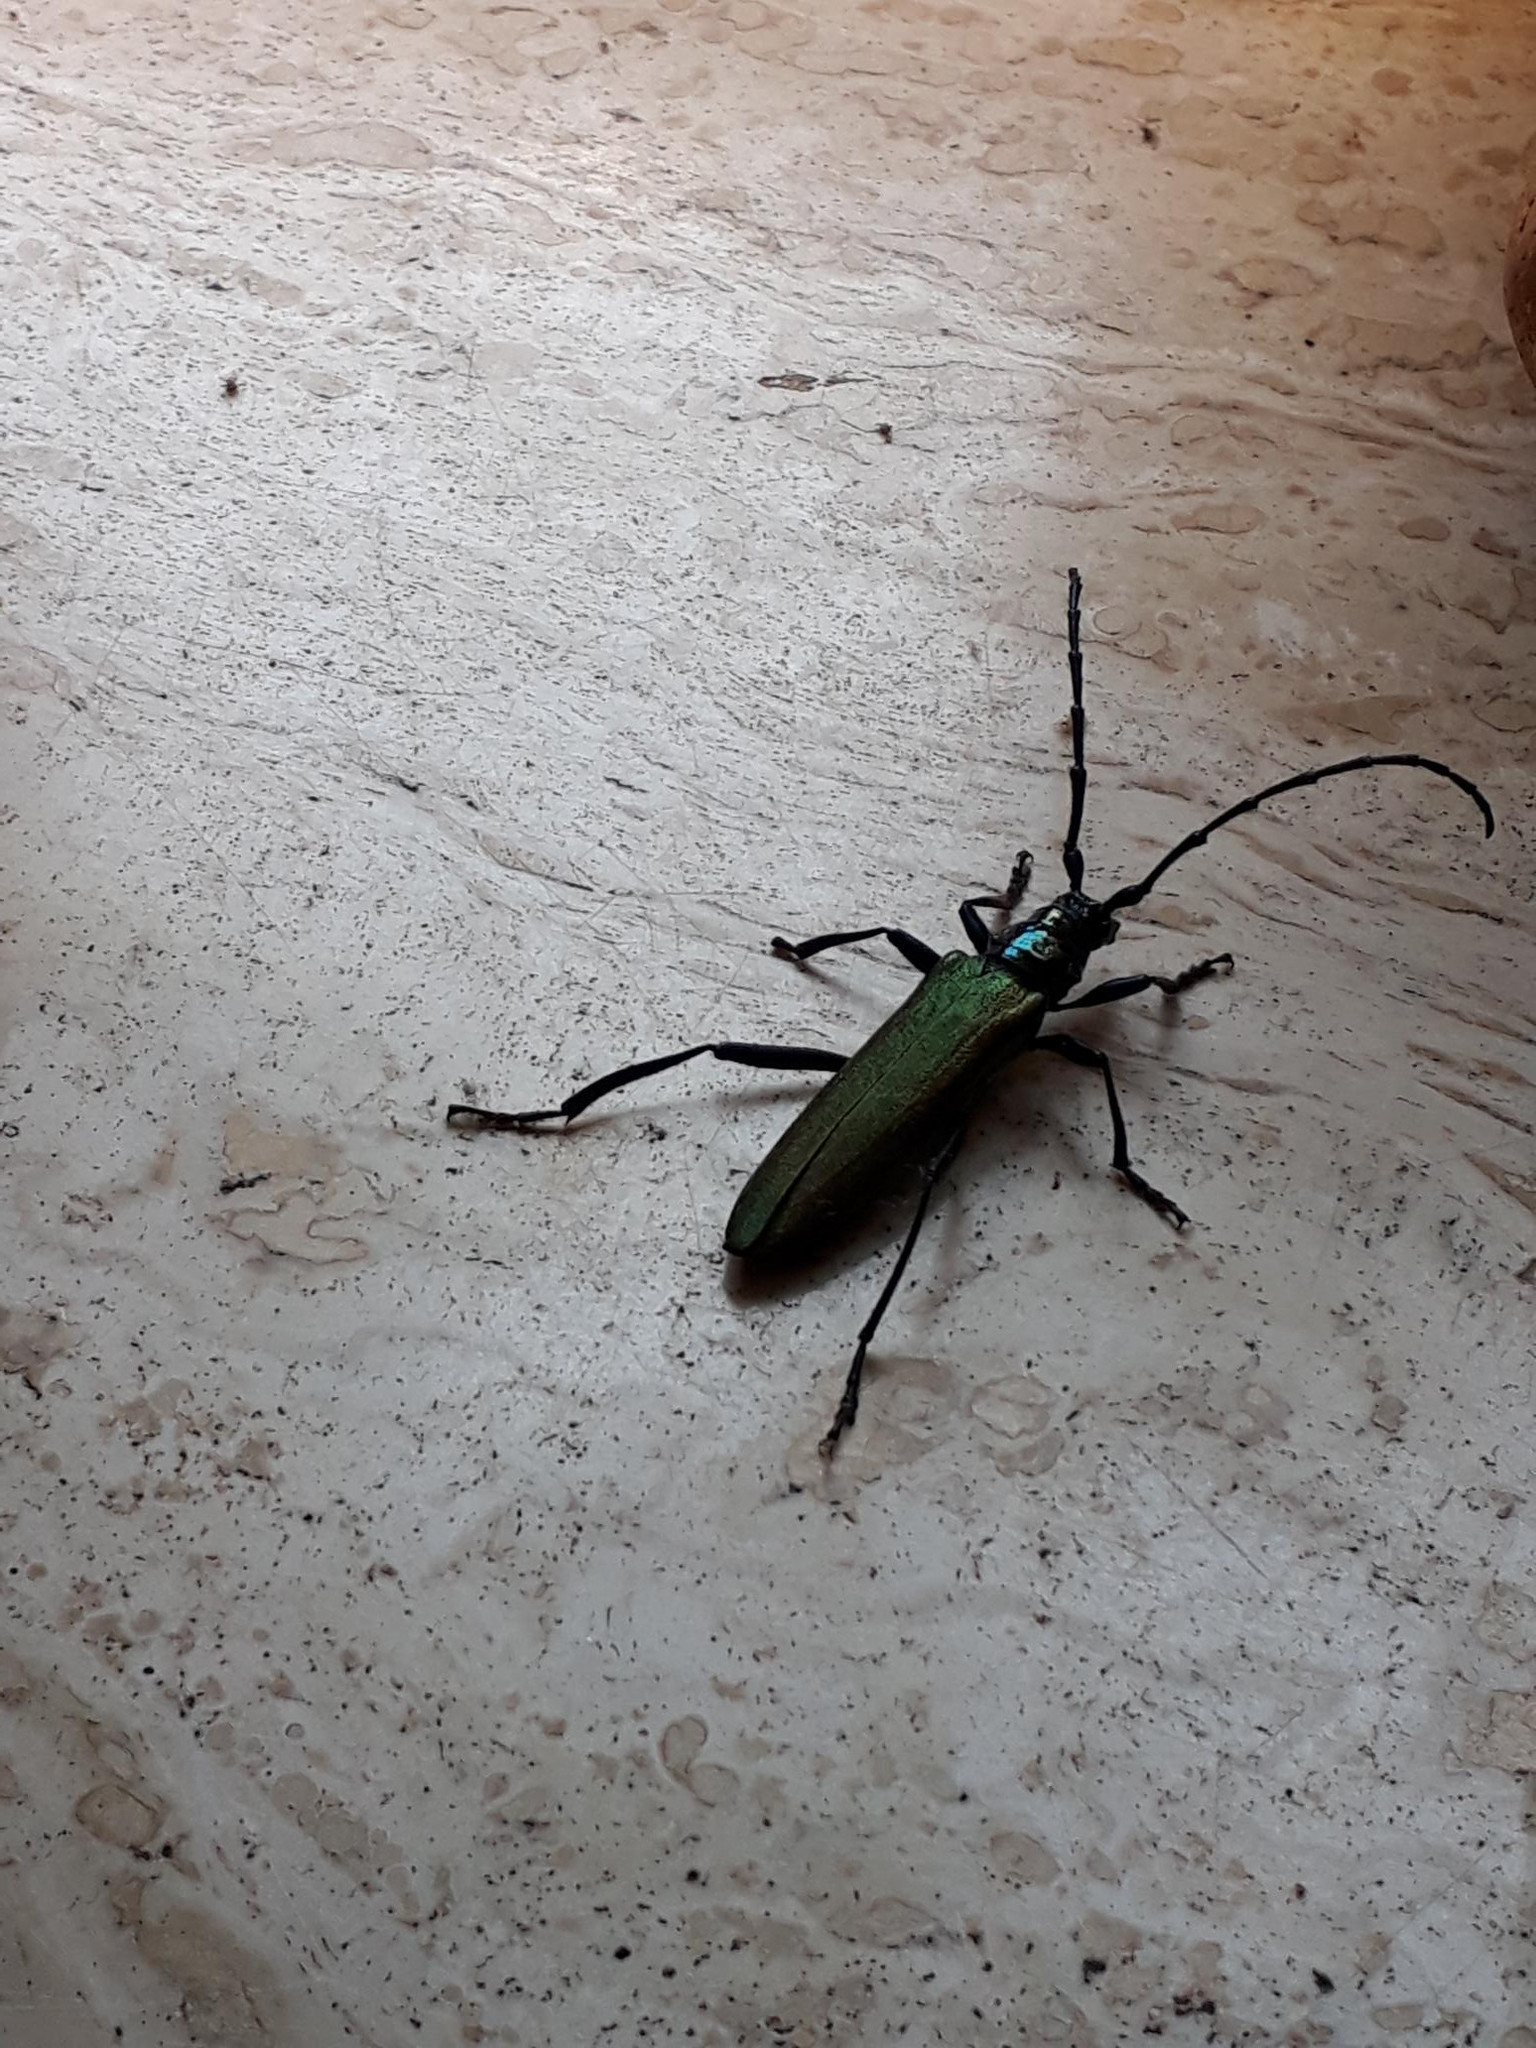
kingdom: Animalia
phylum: Arthropoda
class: Insecta
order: Coleoptera
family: Cerambycidae
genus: Aromia
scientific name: Aromia moschata
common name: Musk beetle
